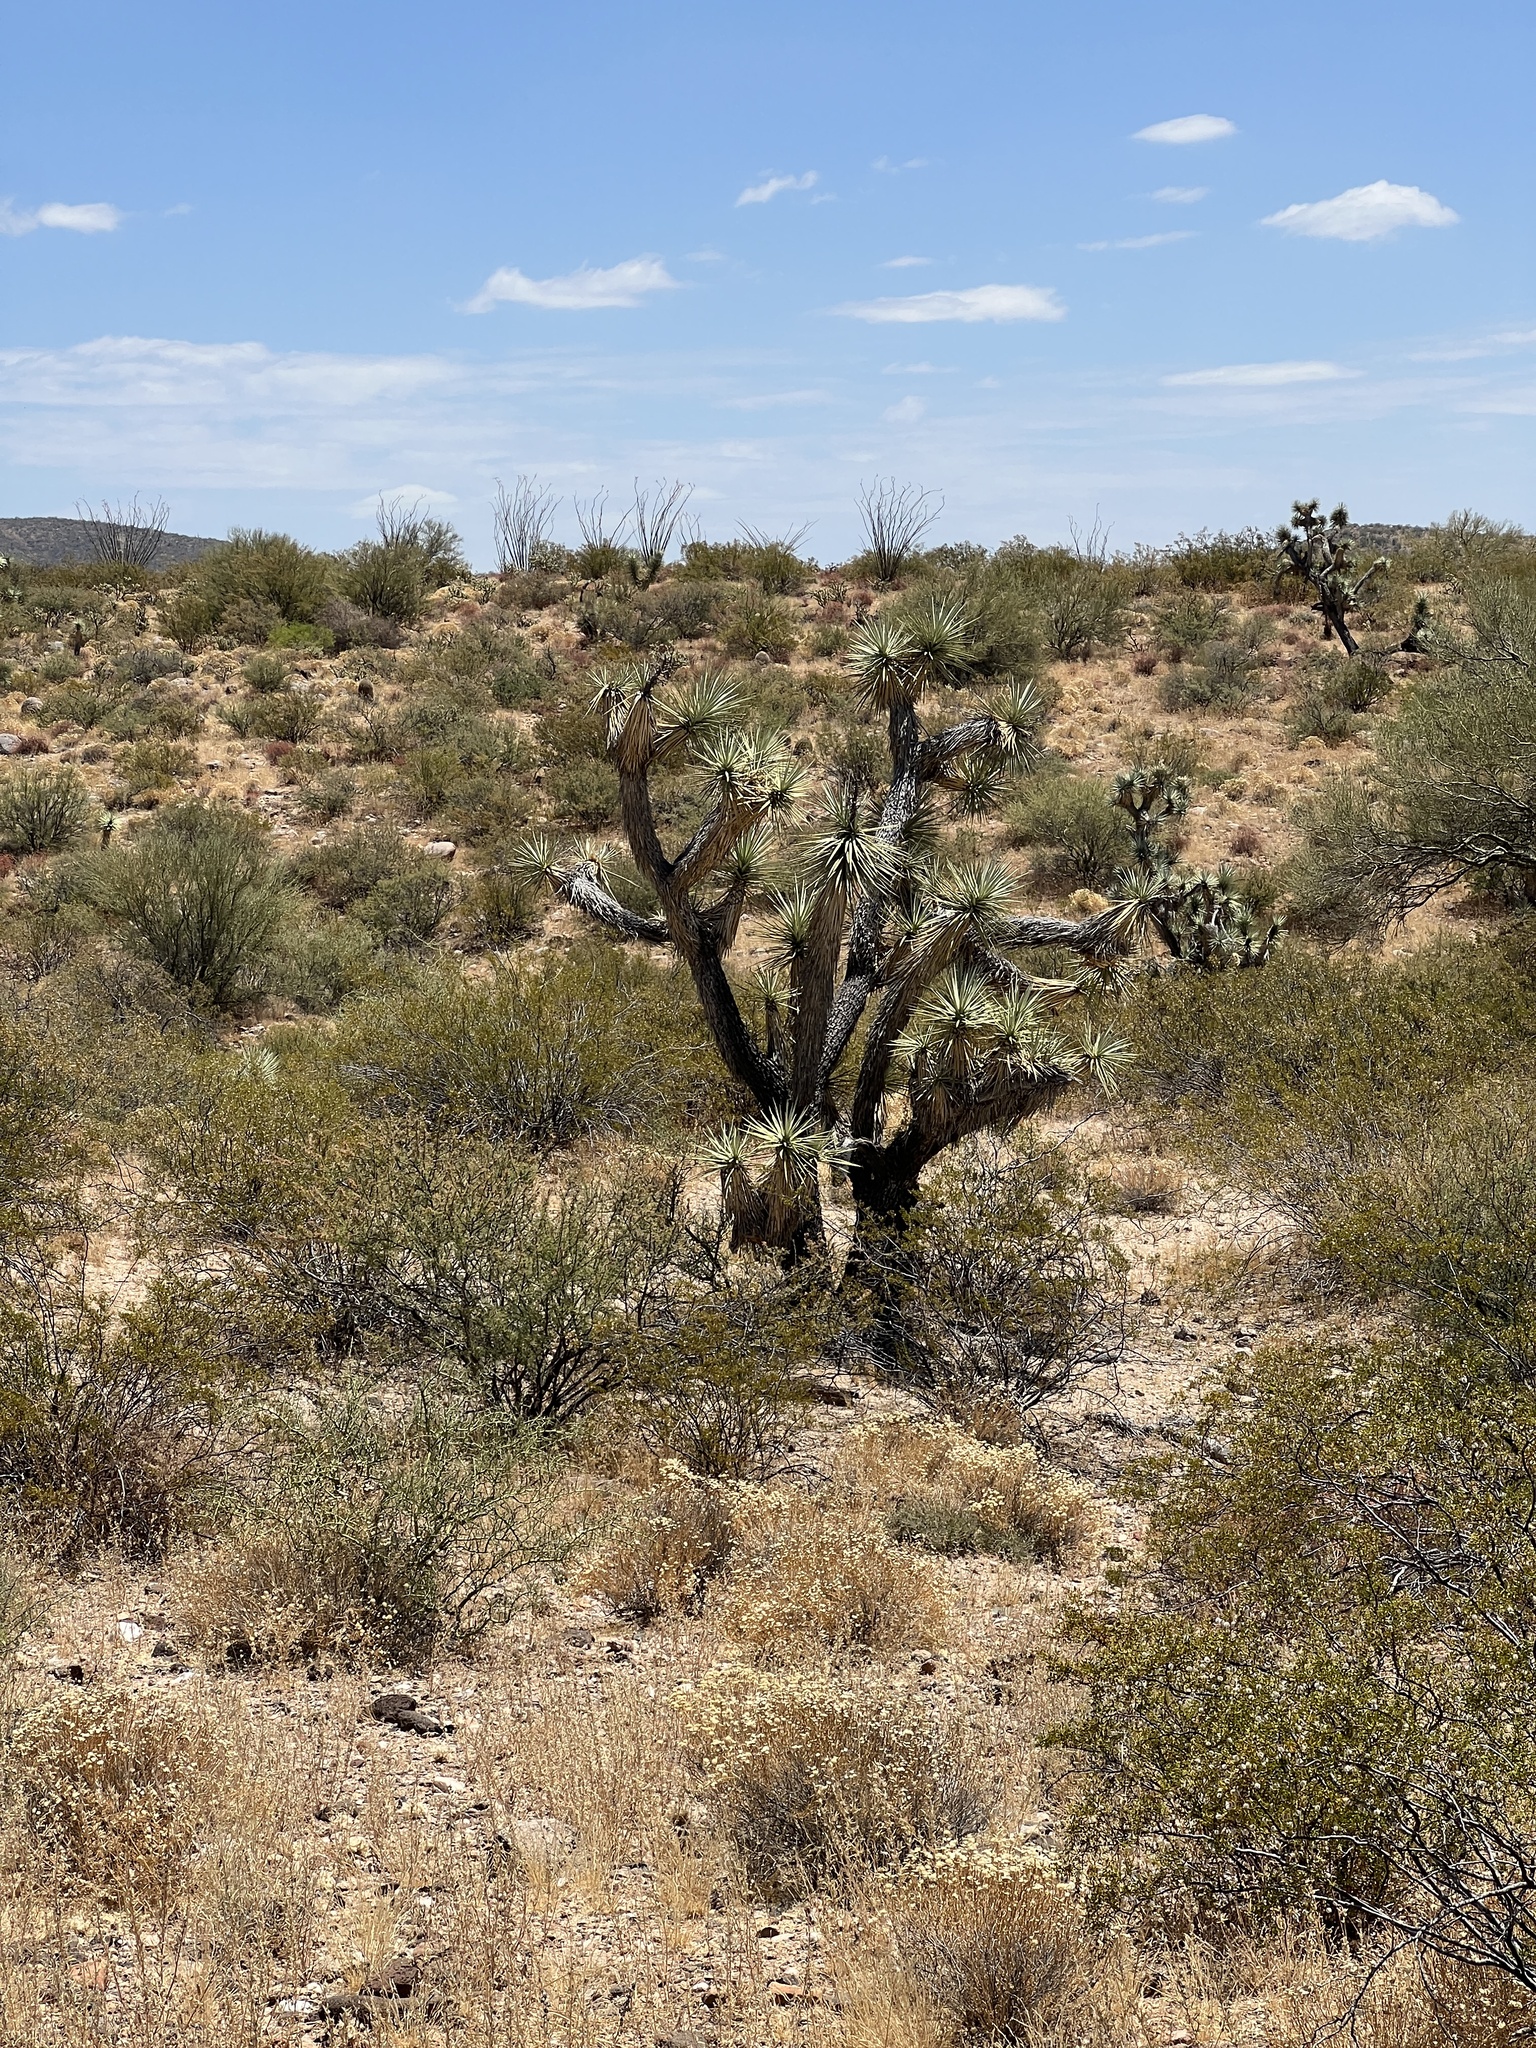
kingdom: Plantae
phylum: Tracheophyta
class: Liliopsida
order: Asparagales
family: Asparagaceae
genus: Yucca
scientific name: Yucca brevifolia
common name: Joshua tree
